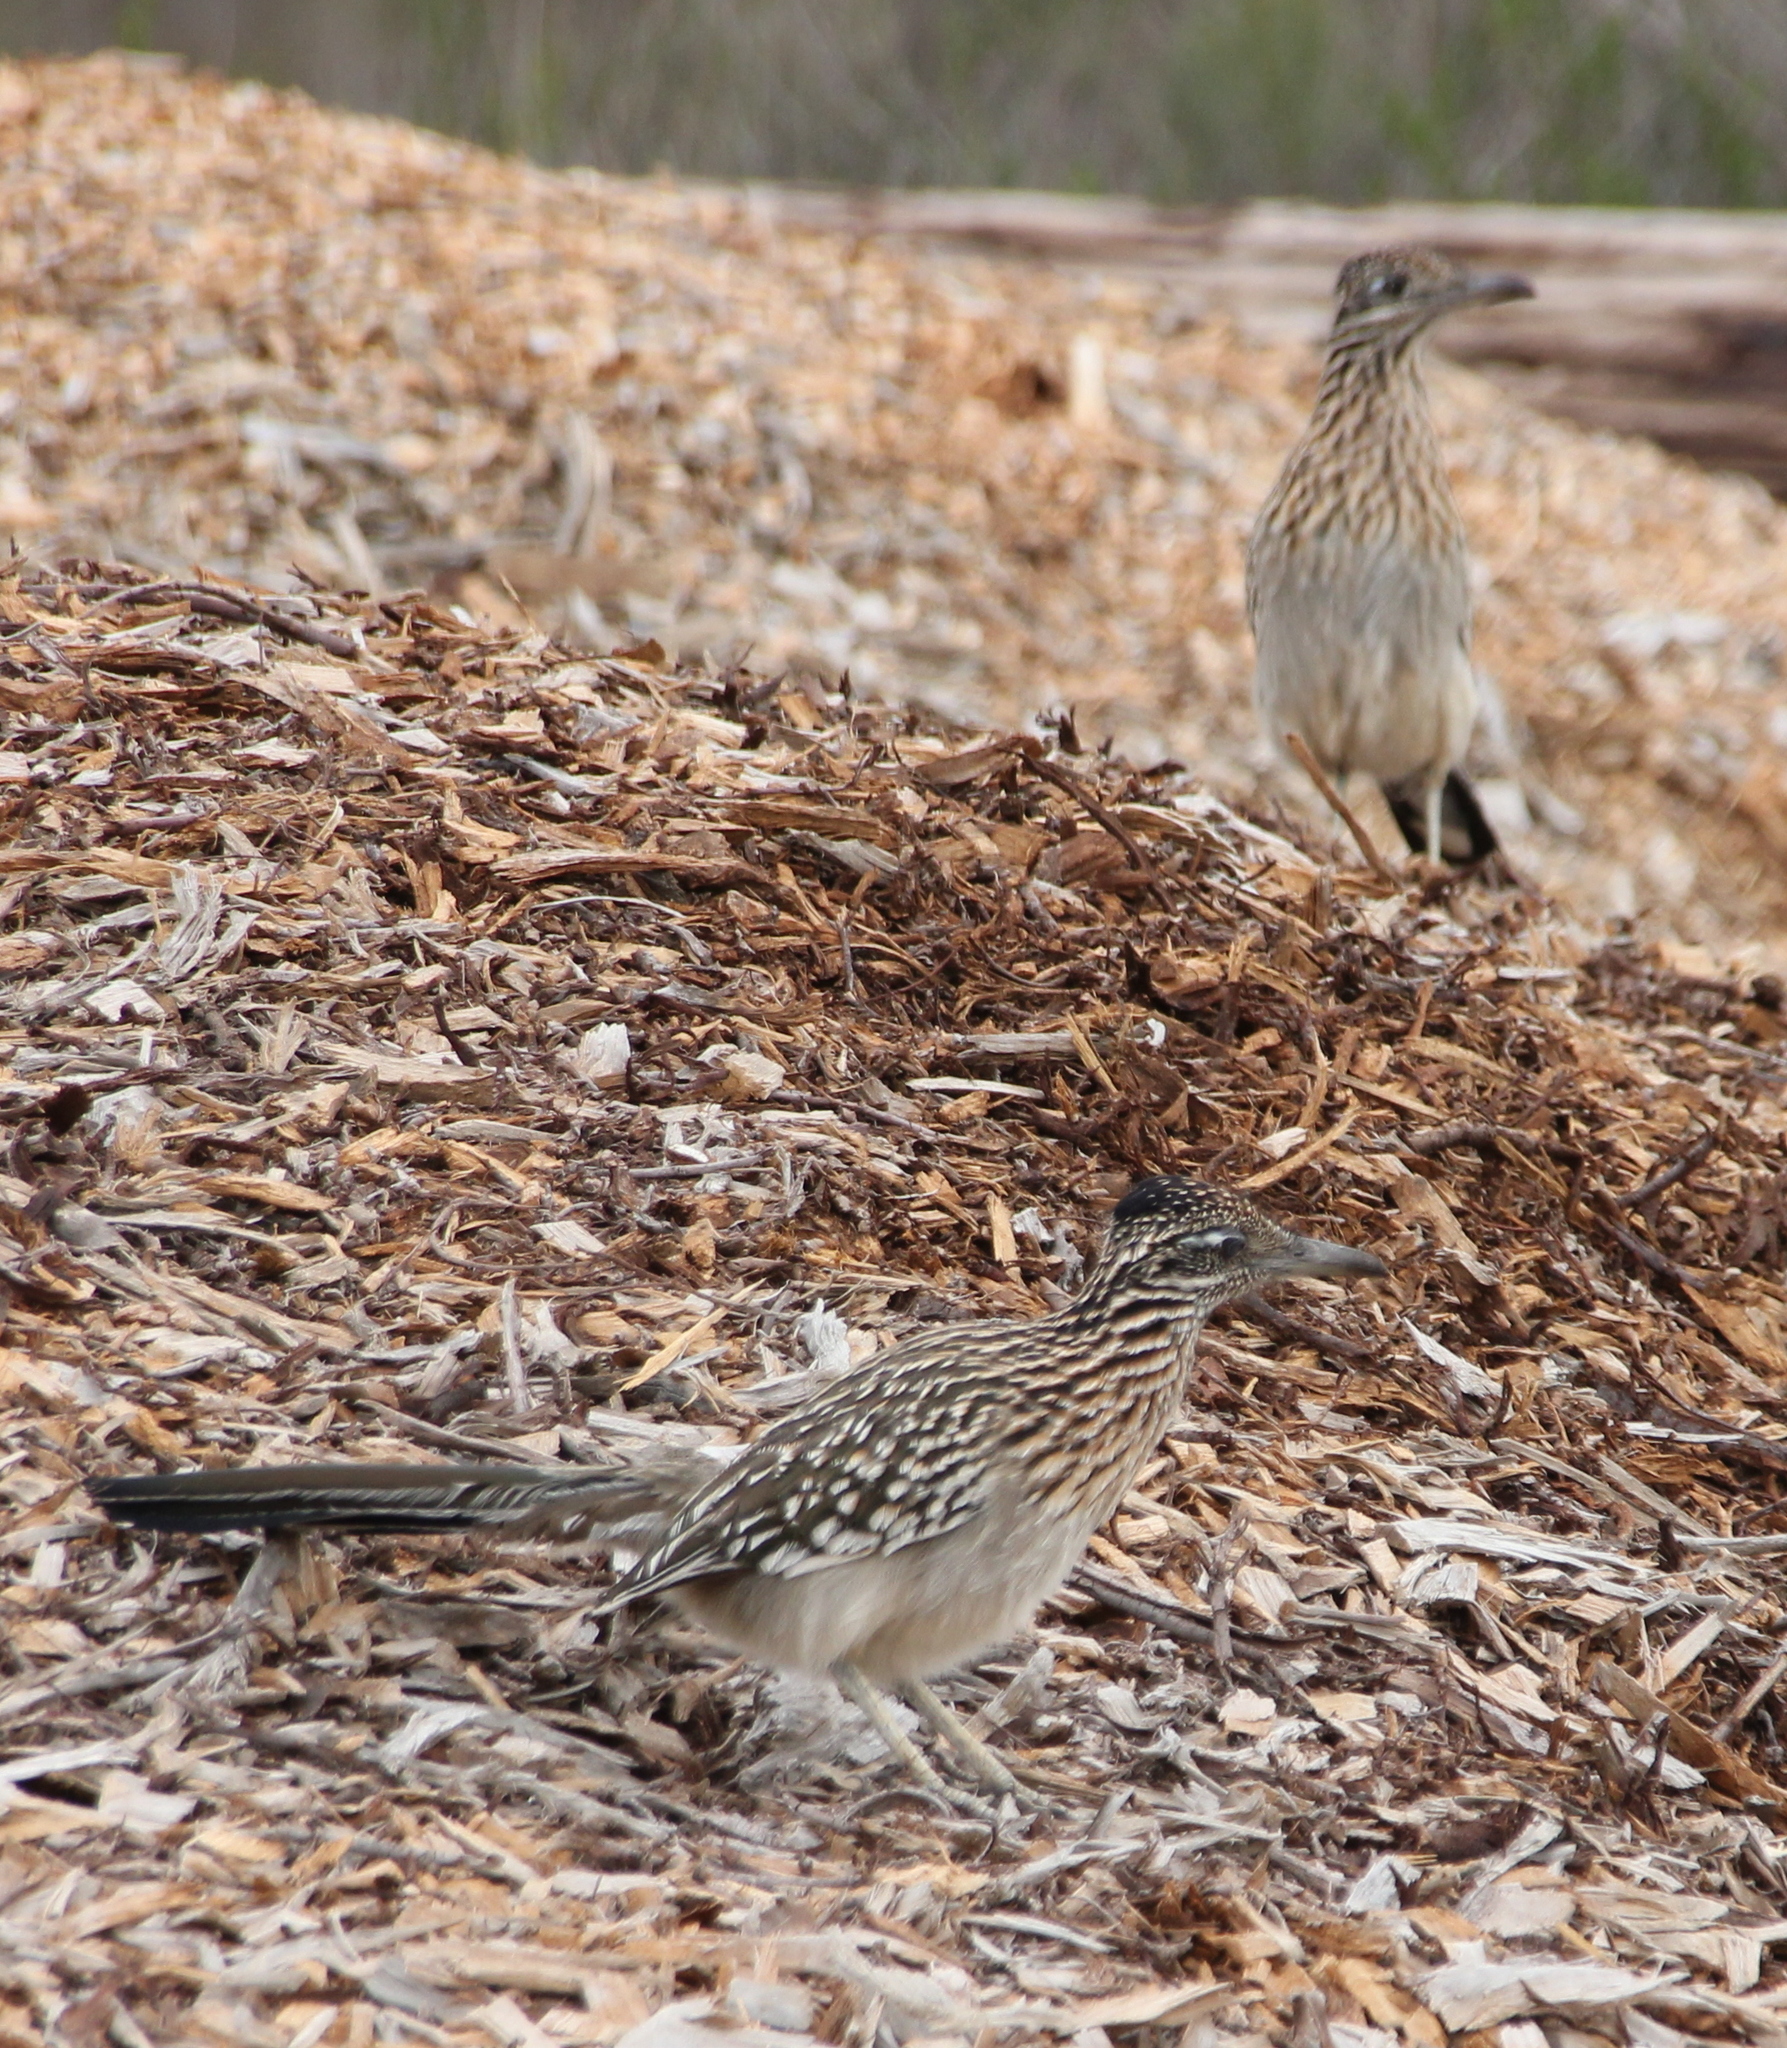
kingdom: Animalia
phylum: Chordata
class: Aves
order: Cuculiformes
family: Cuculidae
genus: Geococcyx
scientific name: Geococcyx californianus
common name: Greater roadrunner
